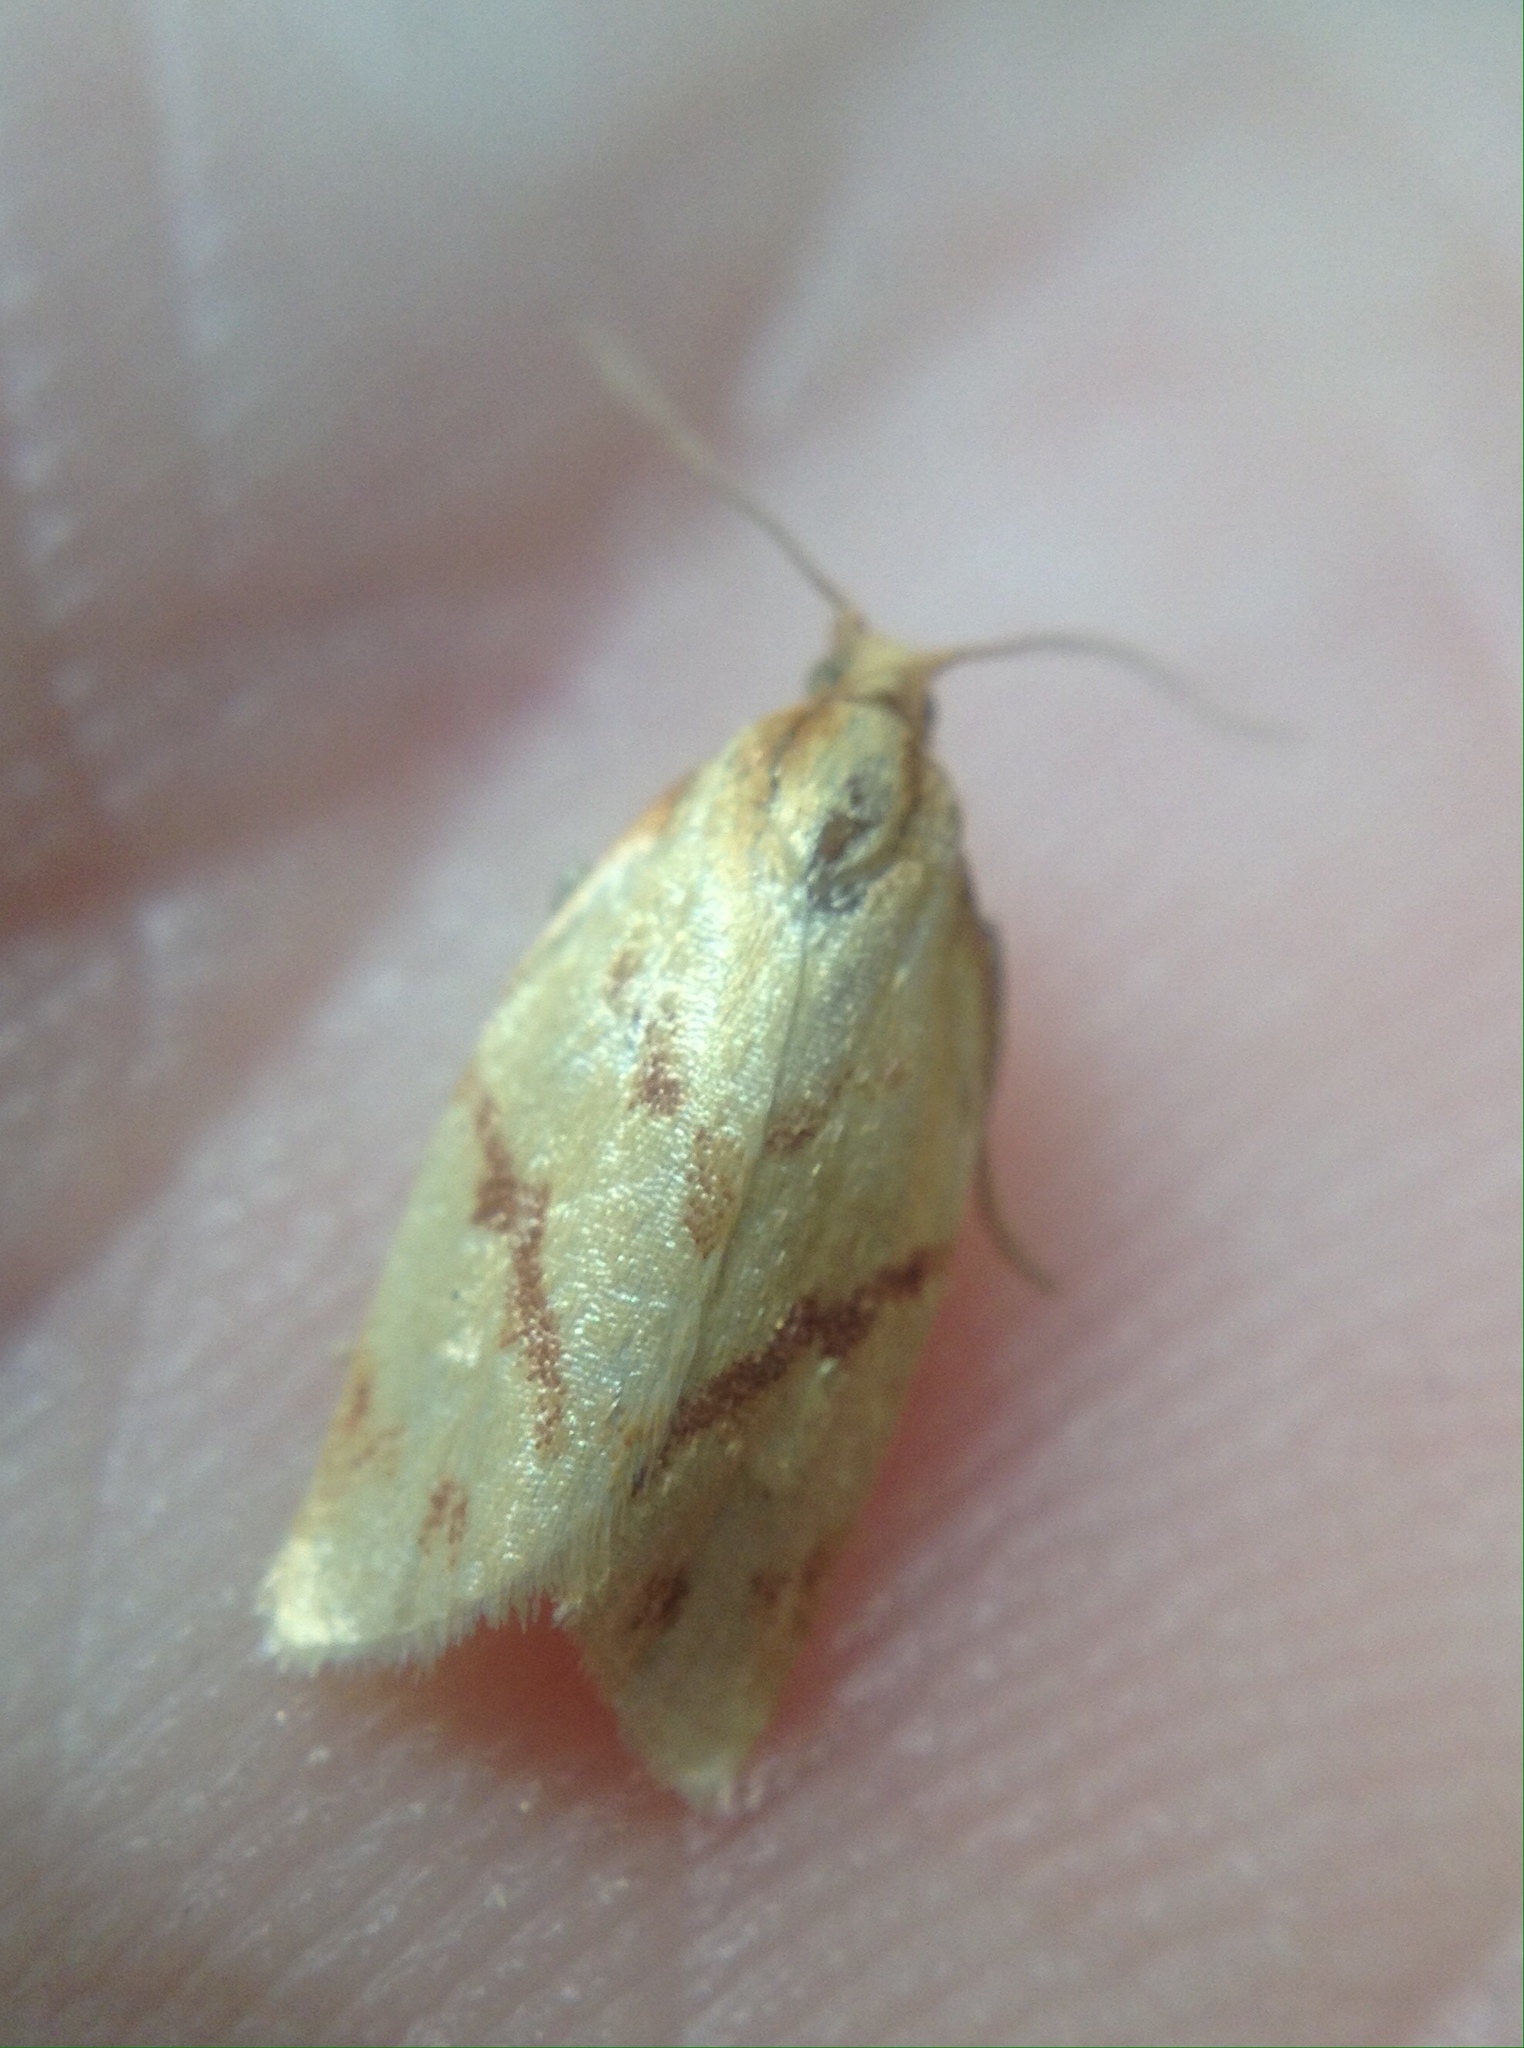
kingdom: Animalia
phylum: Arthropoda
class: Insecta
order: Lepidoptera
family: Tortricidae
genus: Clepsis
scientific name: Clepsis pallidana
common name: Sheep's-bit conch
